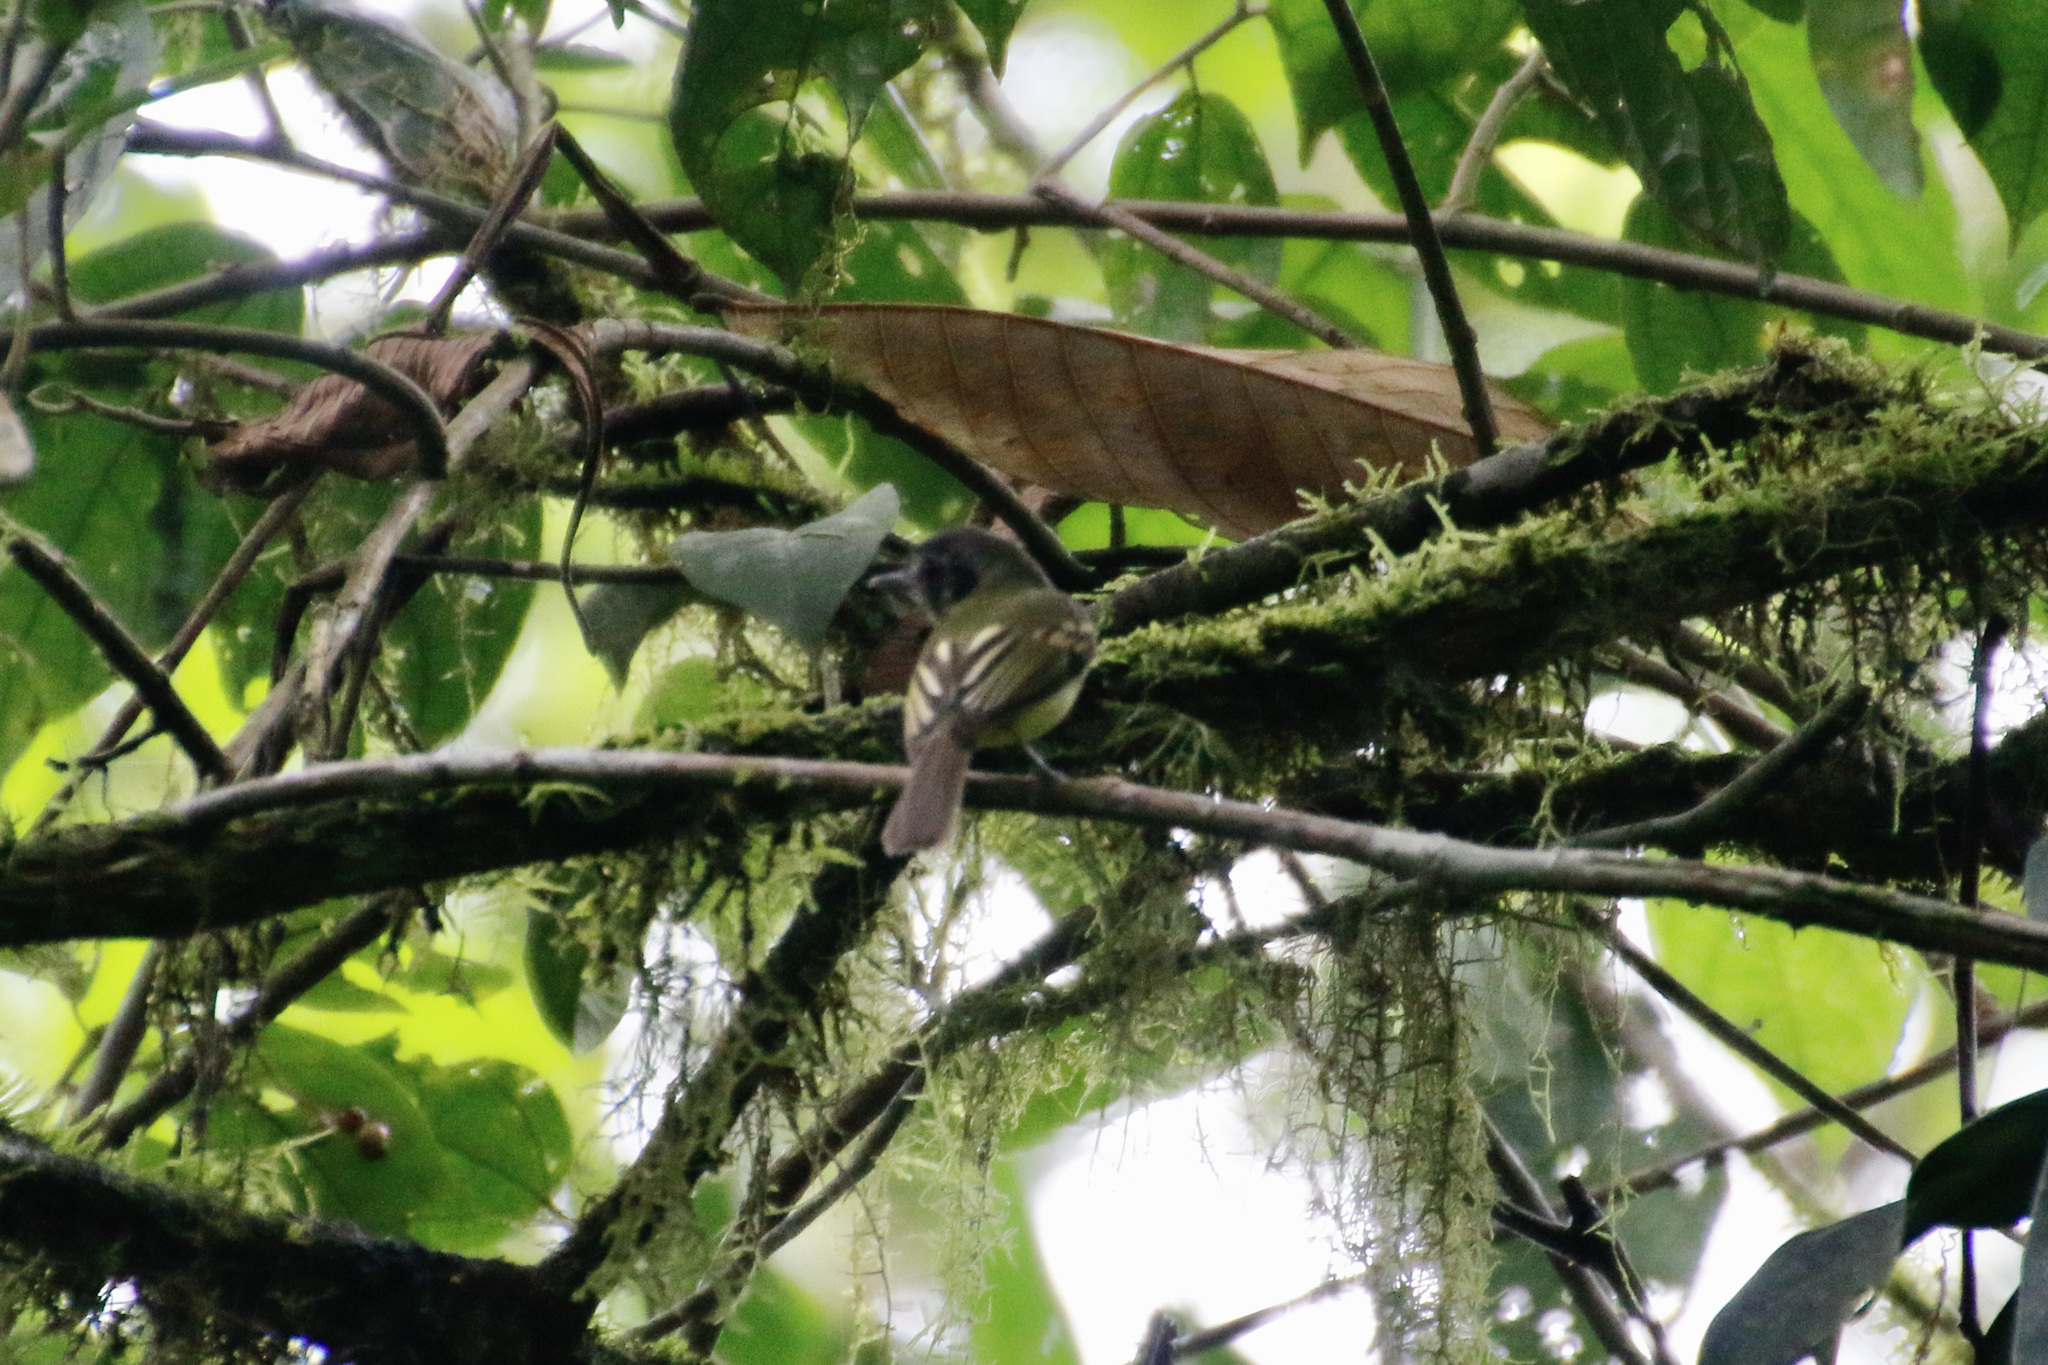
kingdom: Animalia
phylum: Chordata
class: Aves
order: Passeriformes
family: Tyrannidae
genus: Leptopogon
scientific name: Leptopogon superciliaris
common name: Slaty-capped flycatcher
